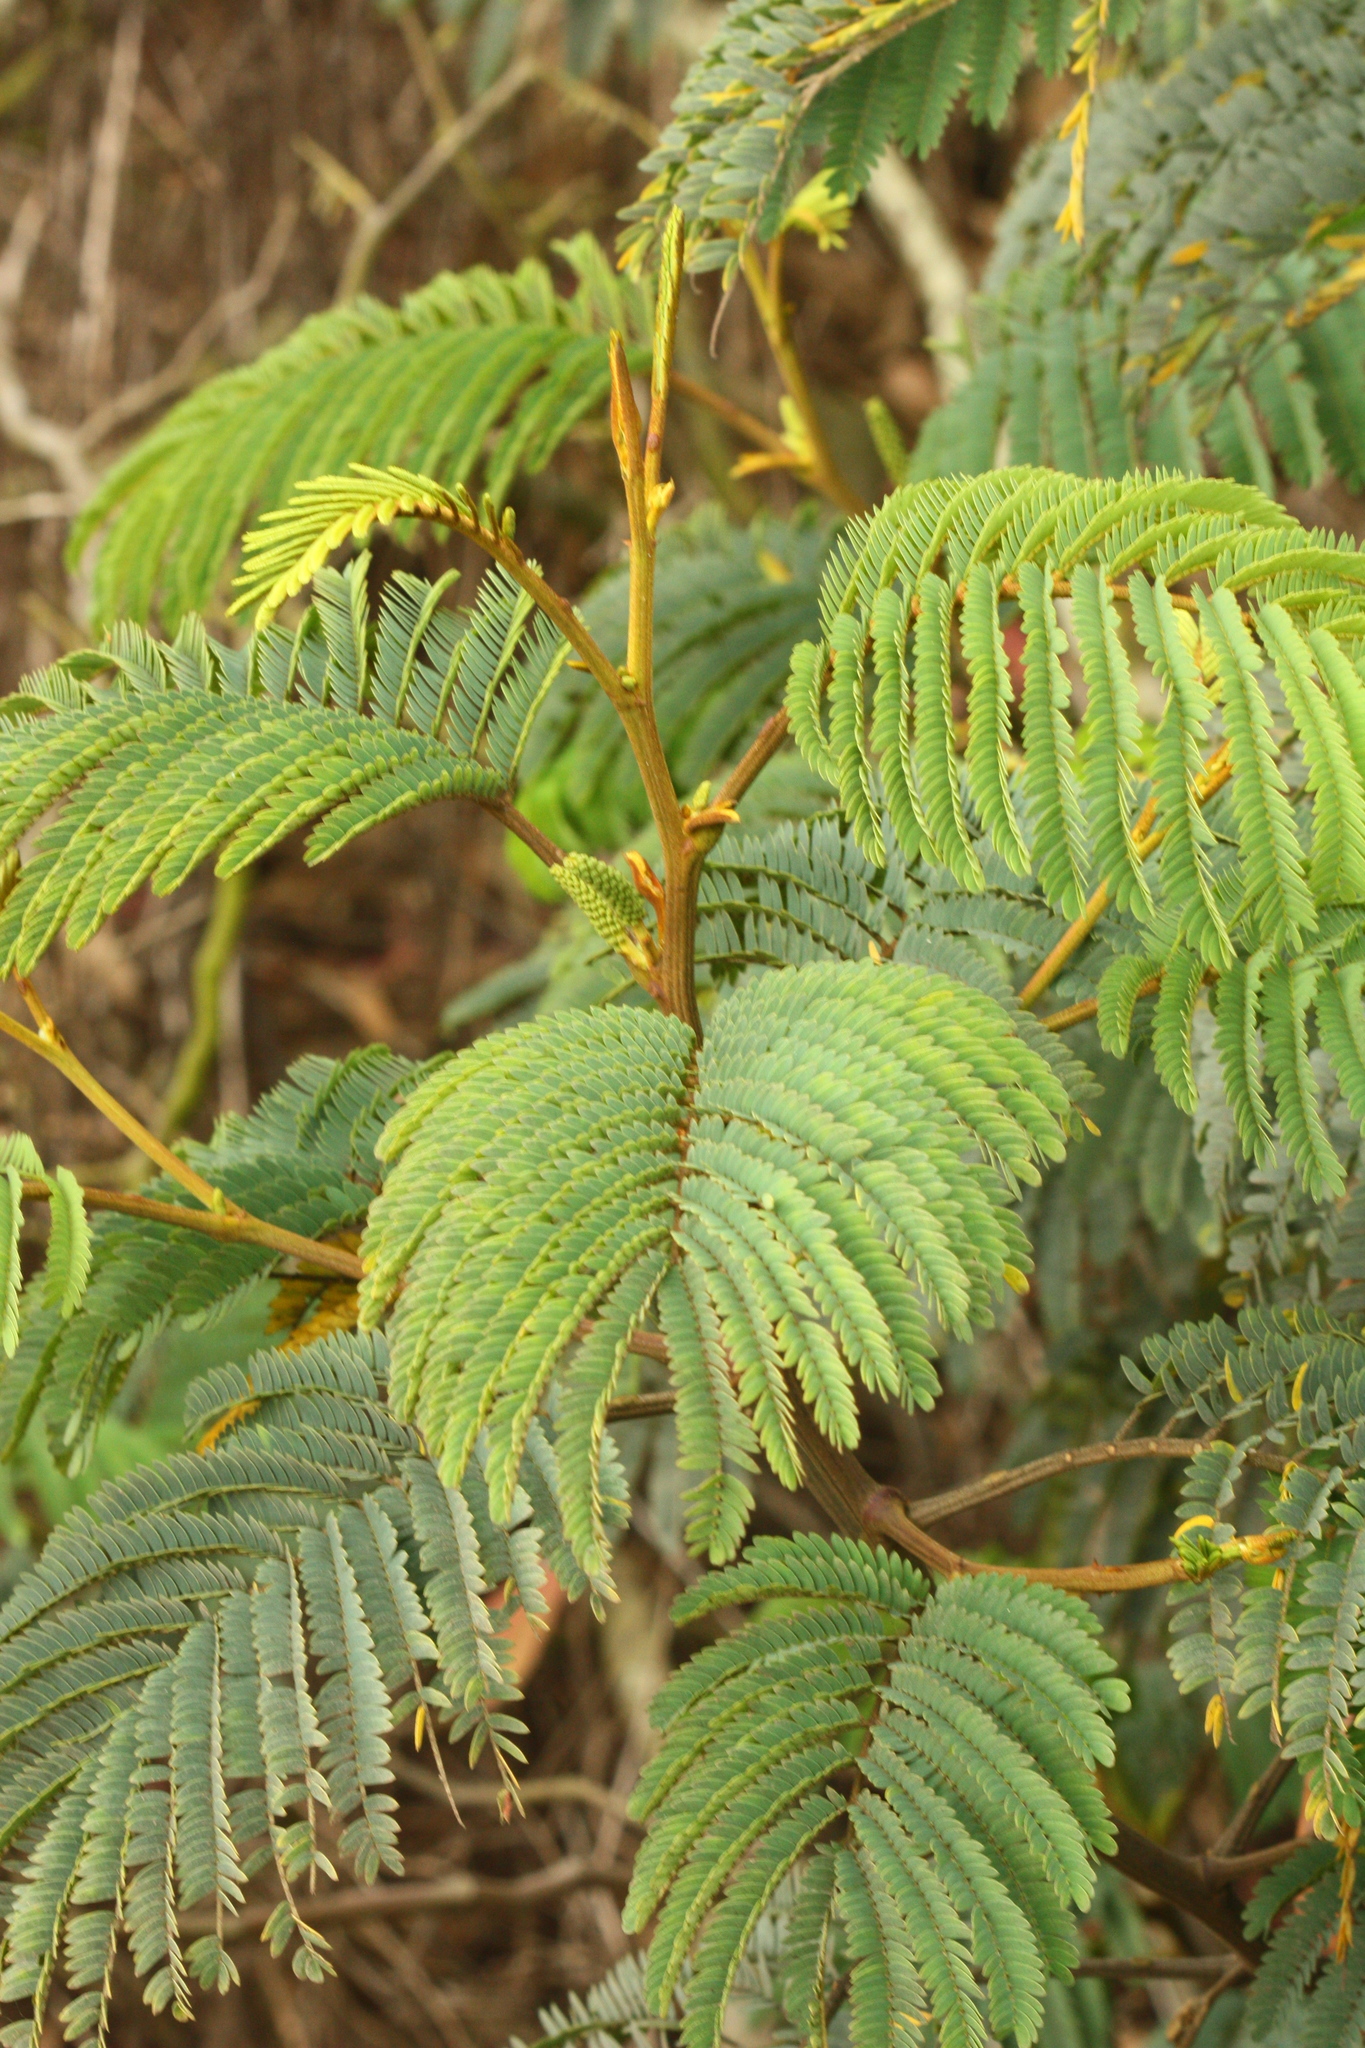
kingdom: Plantae
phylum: Tracheophyta
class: Magnoliopsida
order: Fabales
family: Fabaceae
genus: Paraserianthes
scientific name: Paraserianthes lophantha
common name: Plume albizia
